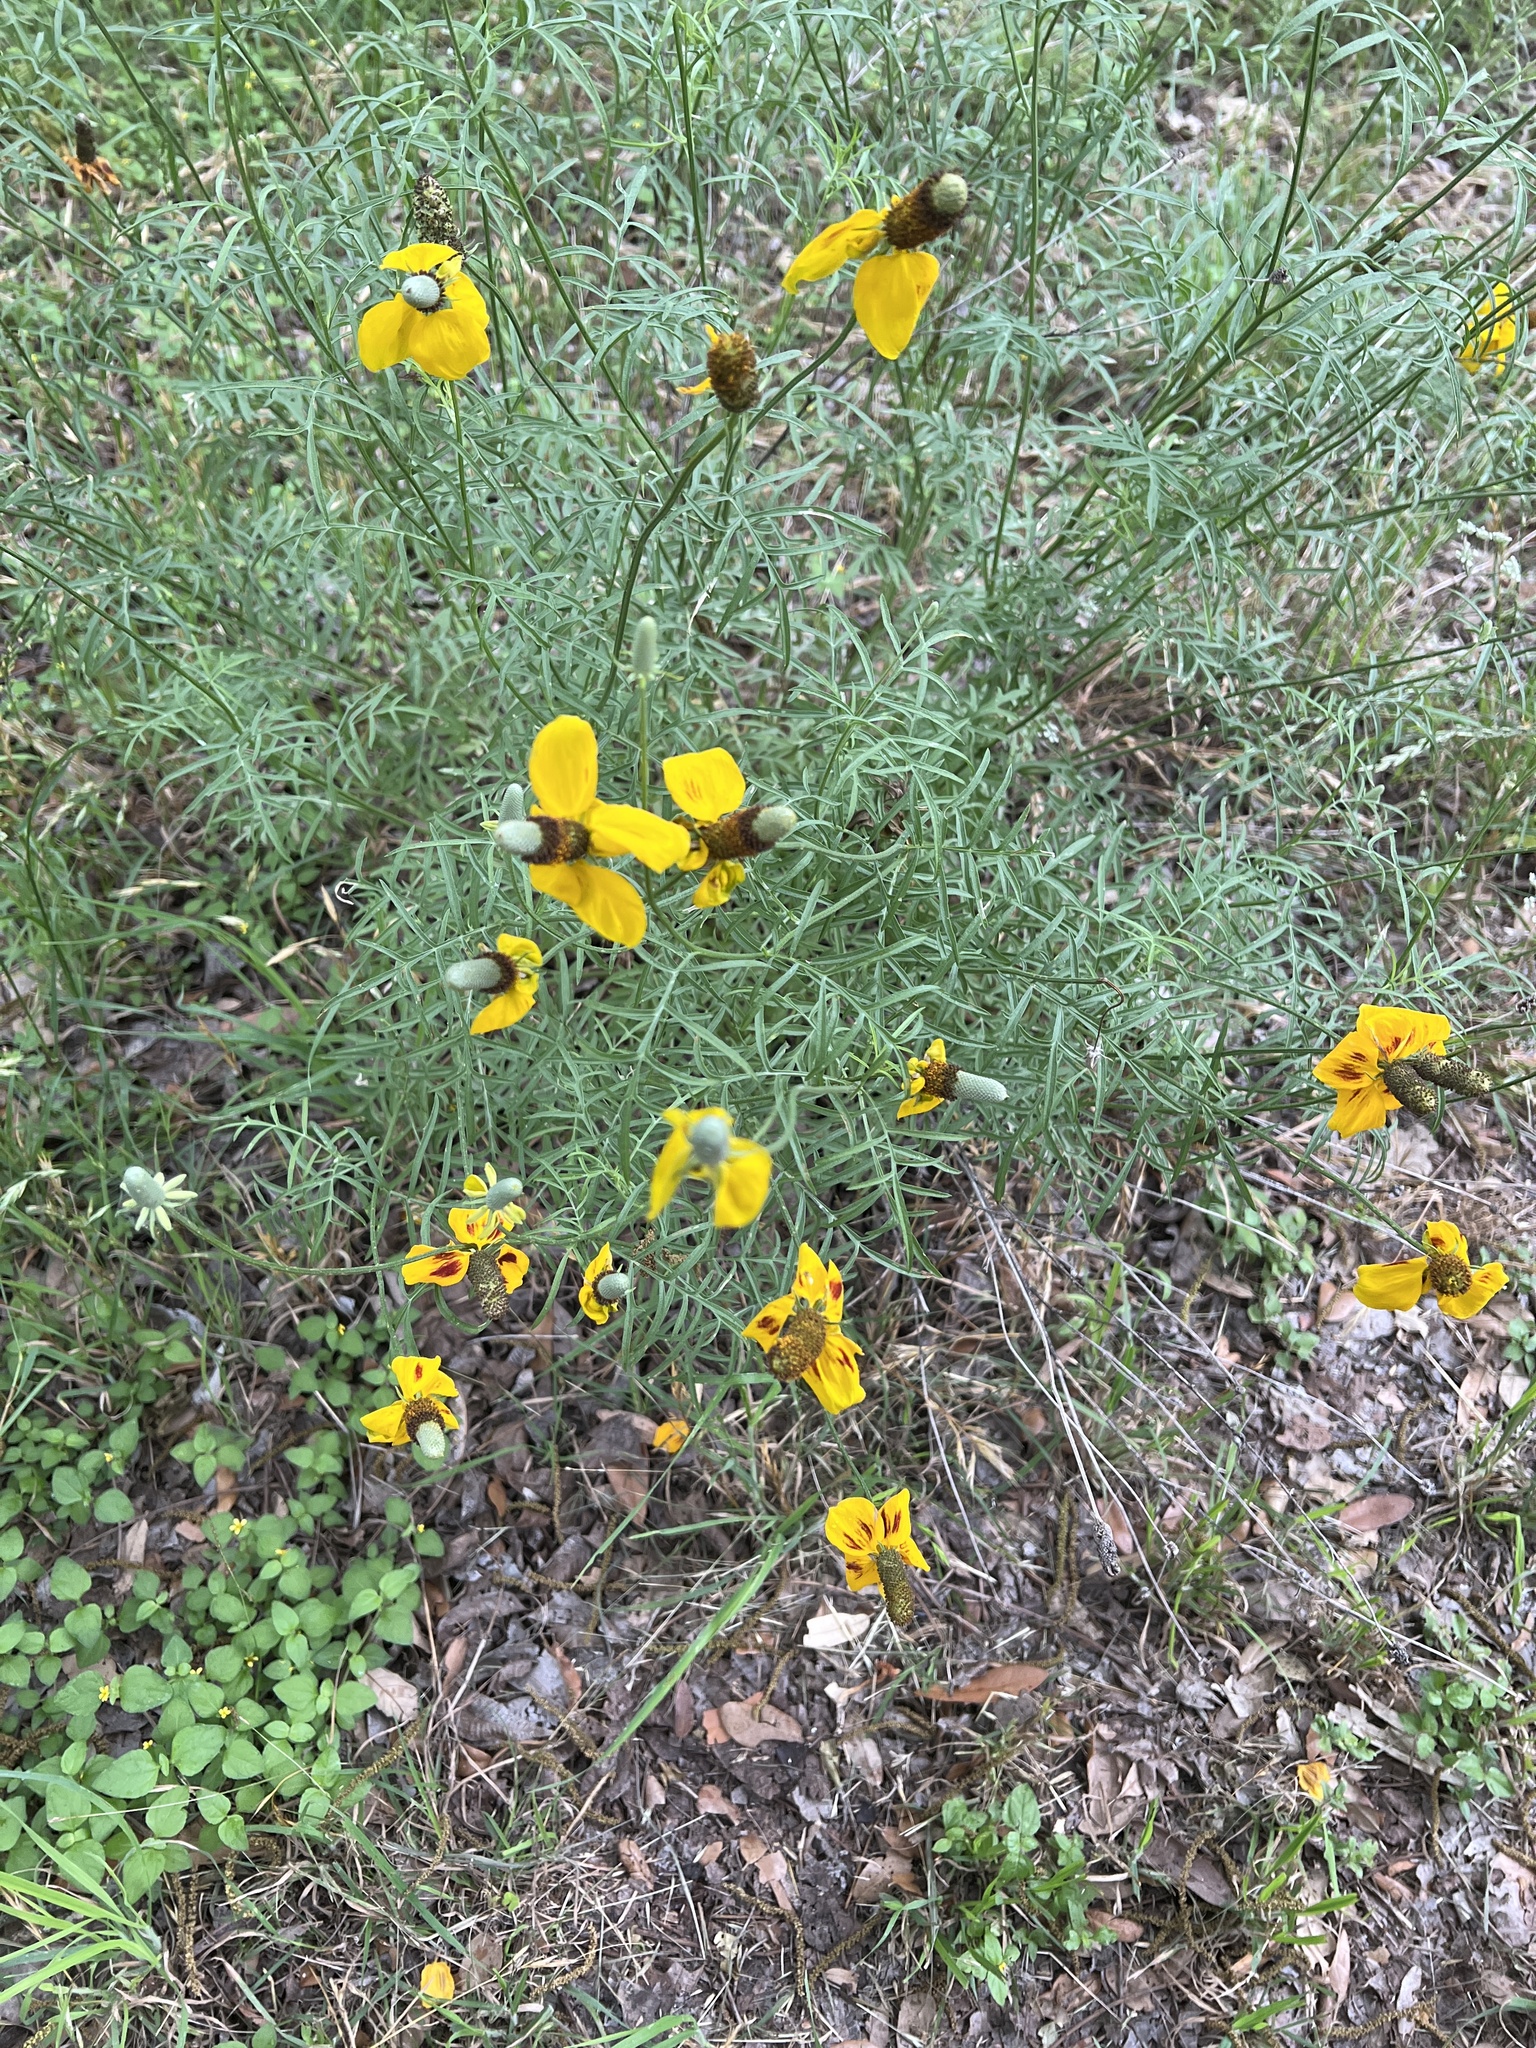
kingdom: Plantae
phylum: Tracheophyta
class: Magnoliopsida
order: Asterales
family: Asteraceae
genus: Ratibida
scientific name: Ratibida columnifera
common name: Prairie coneflower
